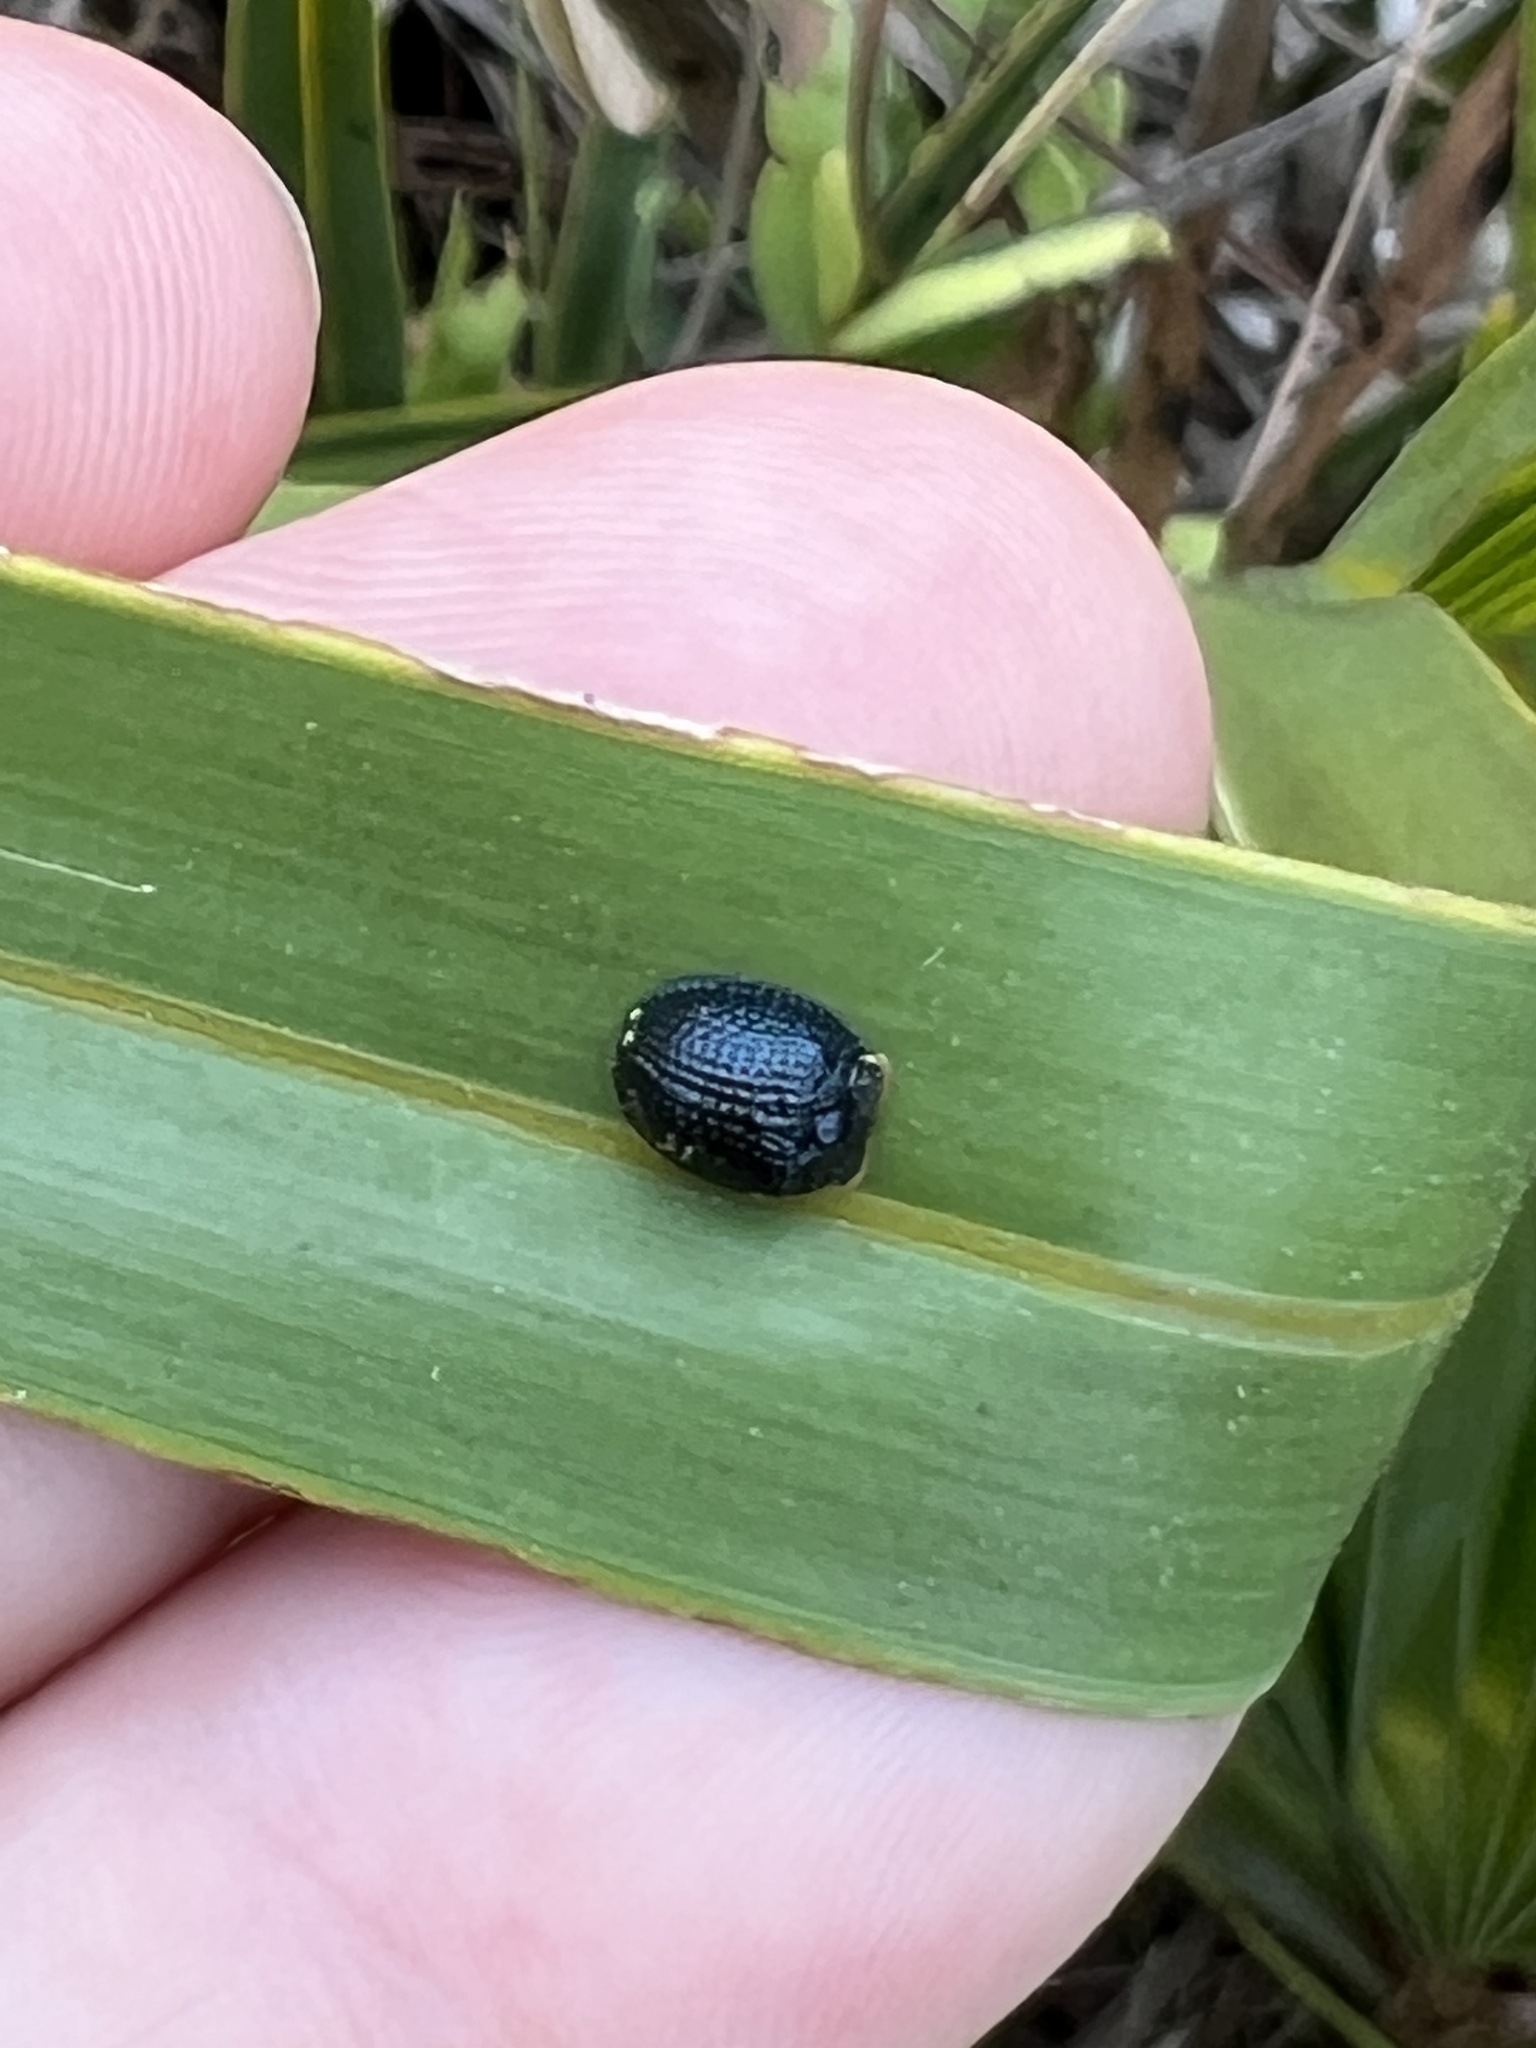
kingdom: Animalia
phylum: Arthropoda
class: Insecta
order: Coleoptera
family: Chrysomelidae
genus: Hemisphaerota
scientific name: Hemisphaerota cyanea
